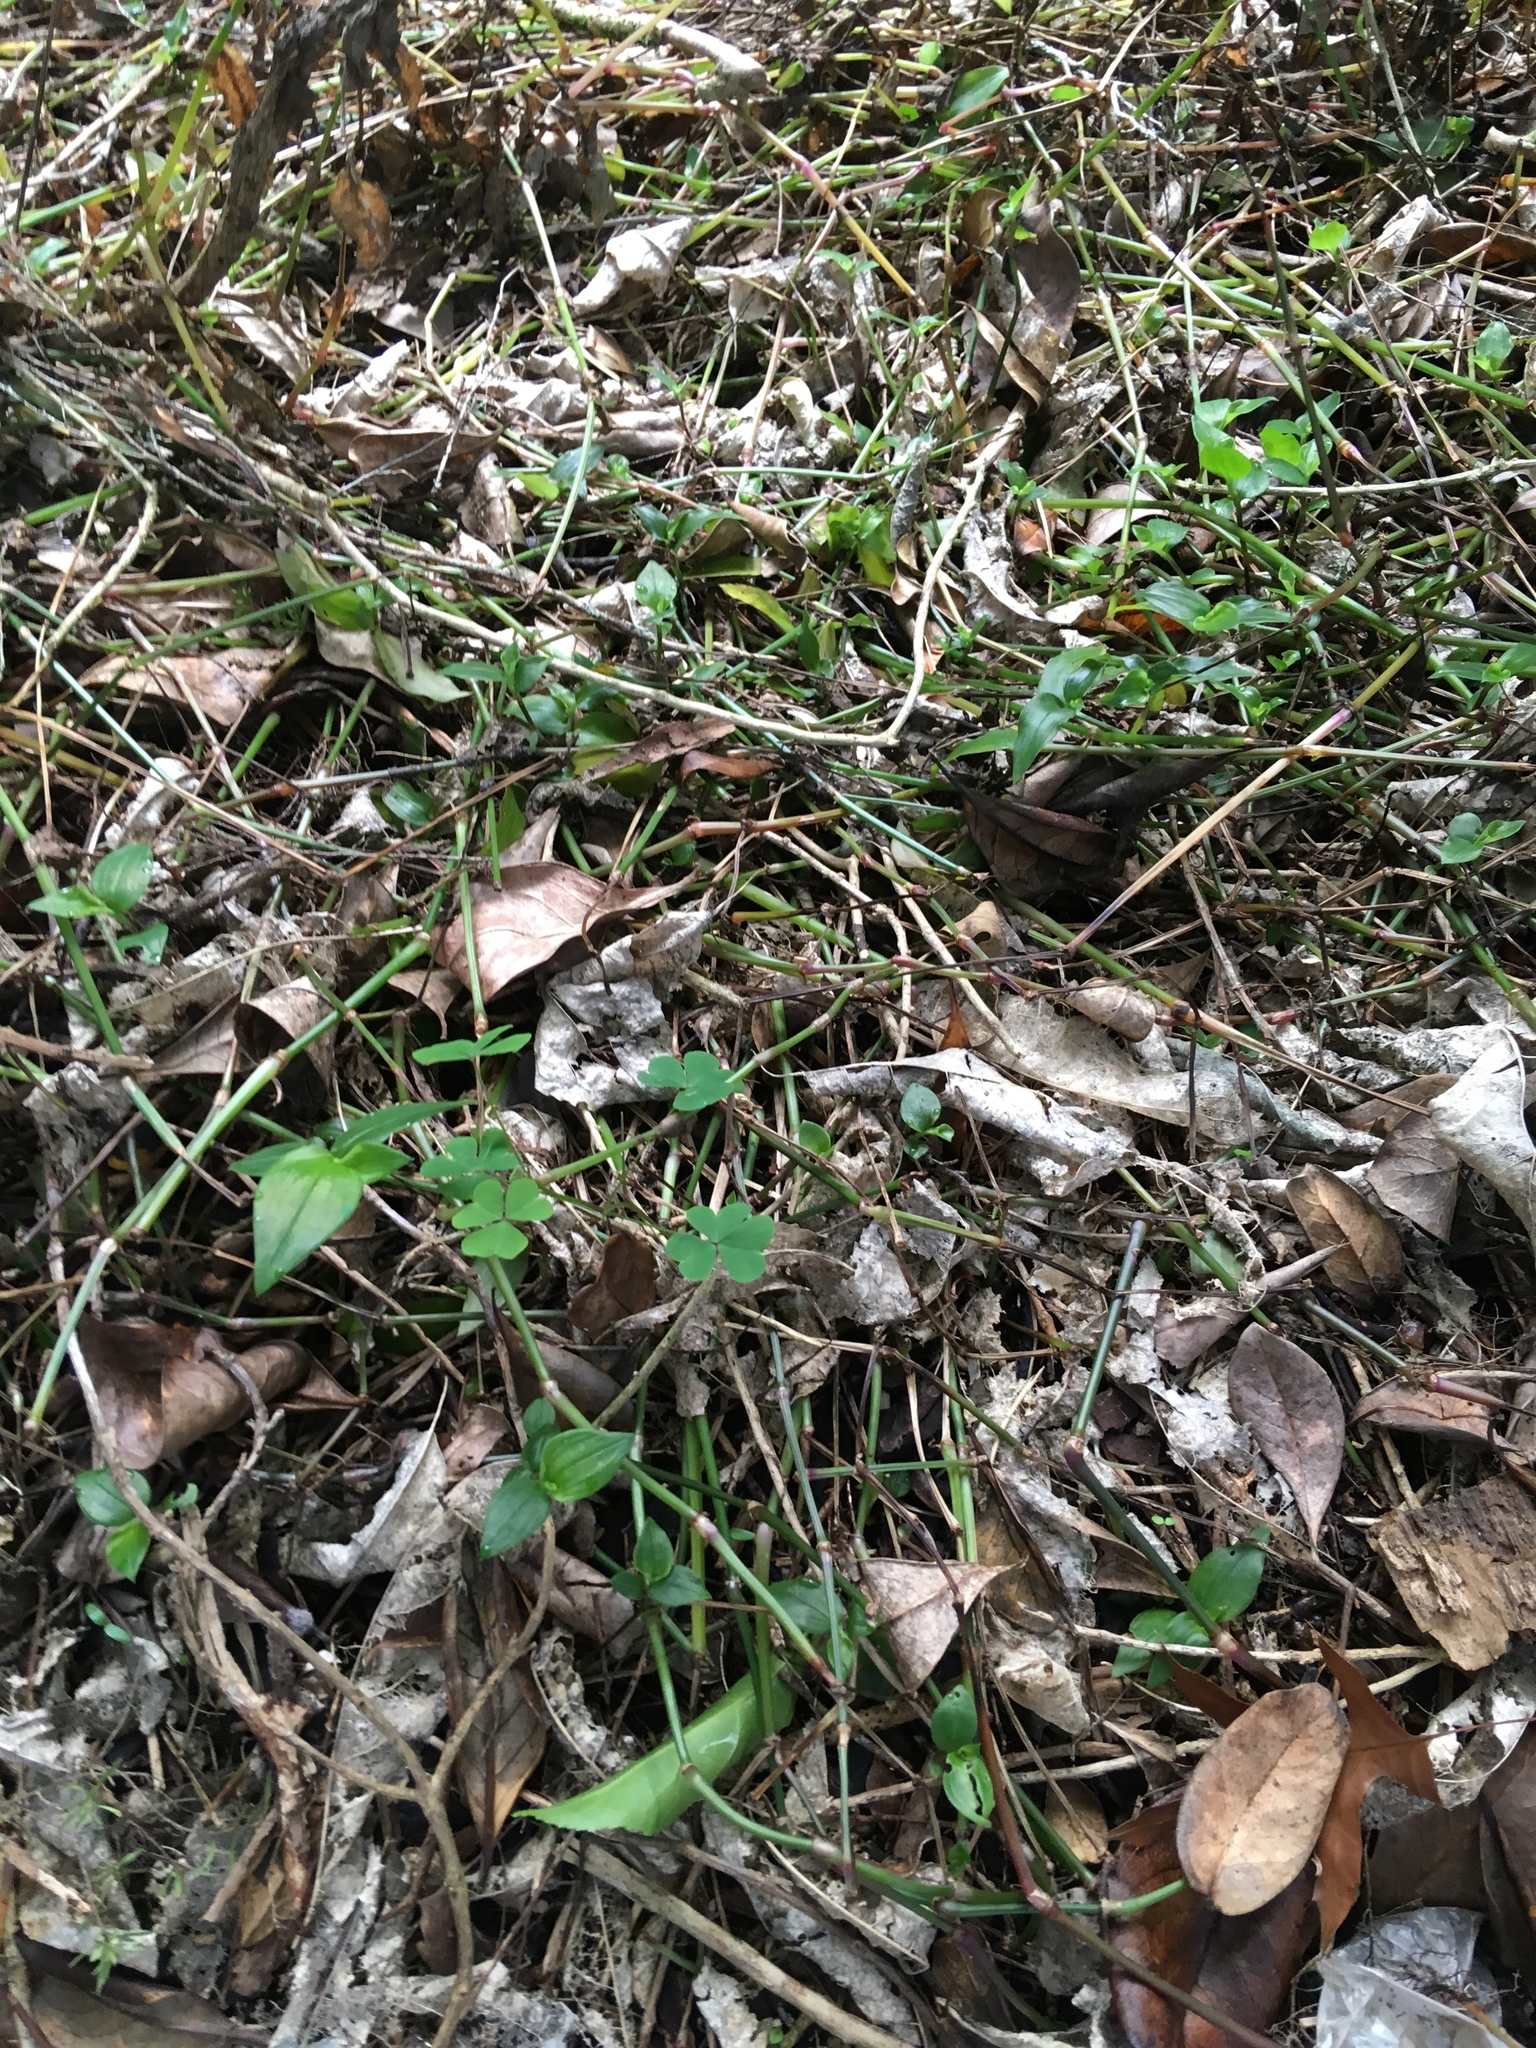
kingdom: Plantae
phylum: Tracheophyta
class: Liliopsida
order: Commelinales
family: Commelinaceae
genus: Tradescantia
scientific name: Tradescantia fluminensis
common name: Wandering-jew
